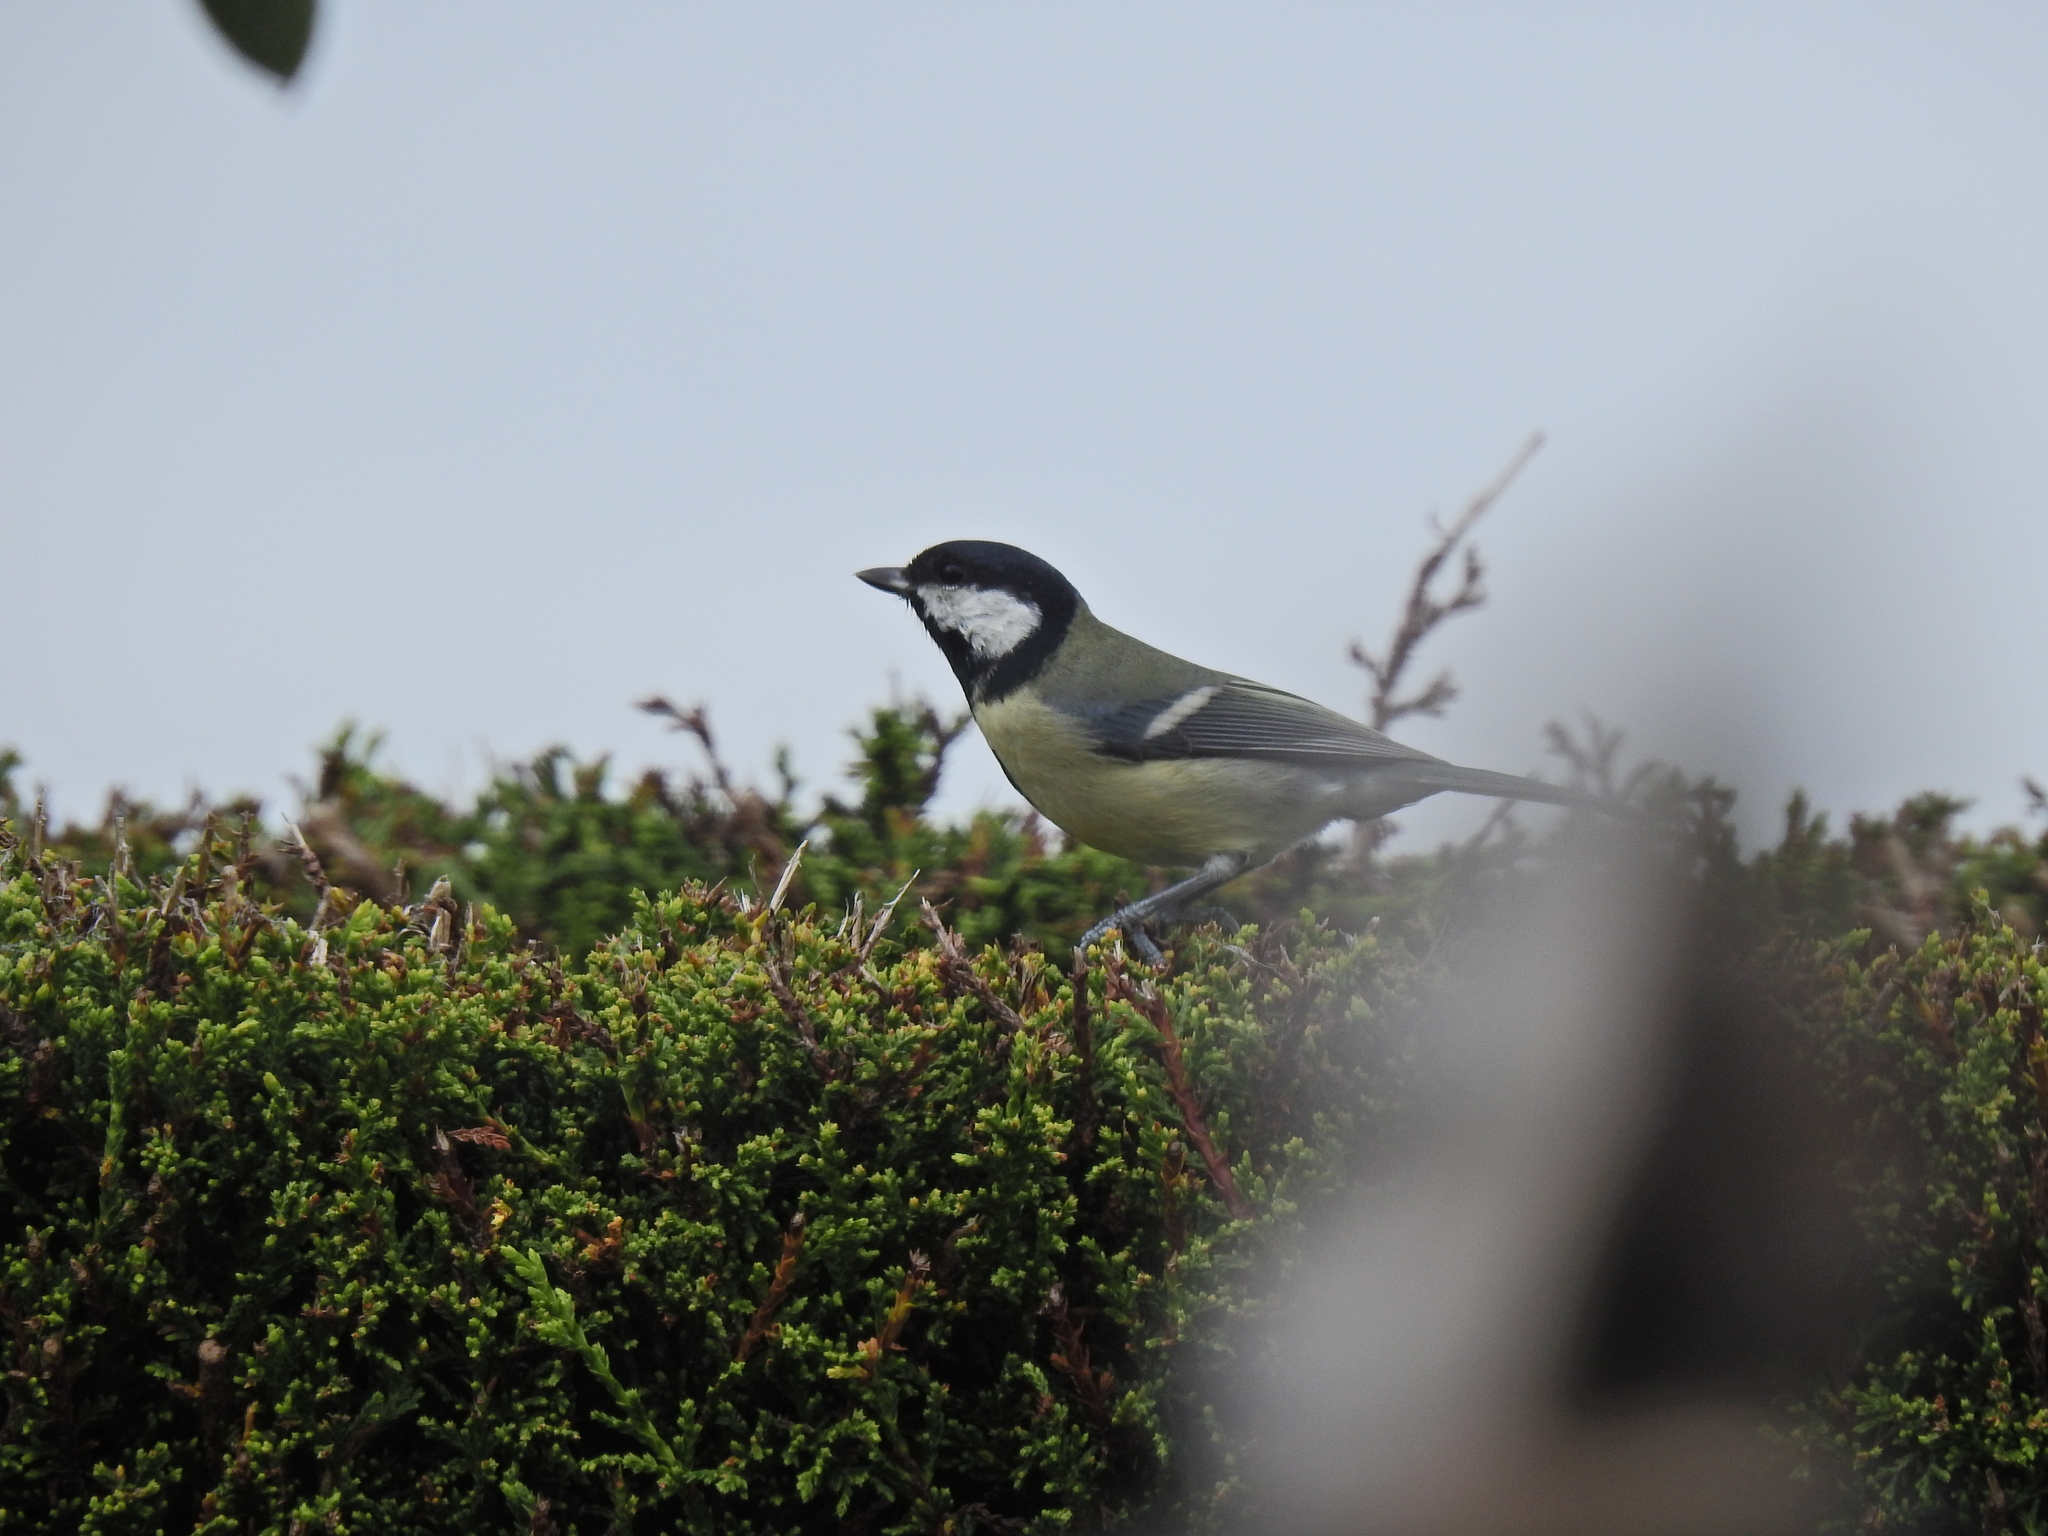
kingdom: Animalia
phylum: Chordata
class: Aves
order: Passeriformes
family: Paridae
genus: Parus
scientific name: Parus major
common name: Great tit
